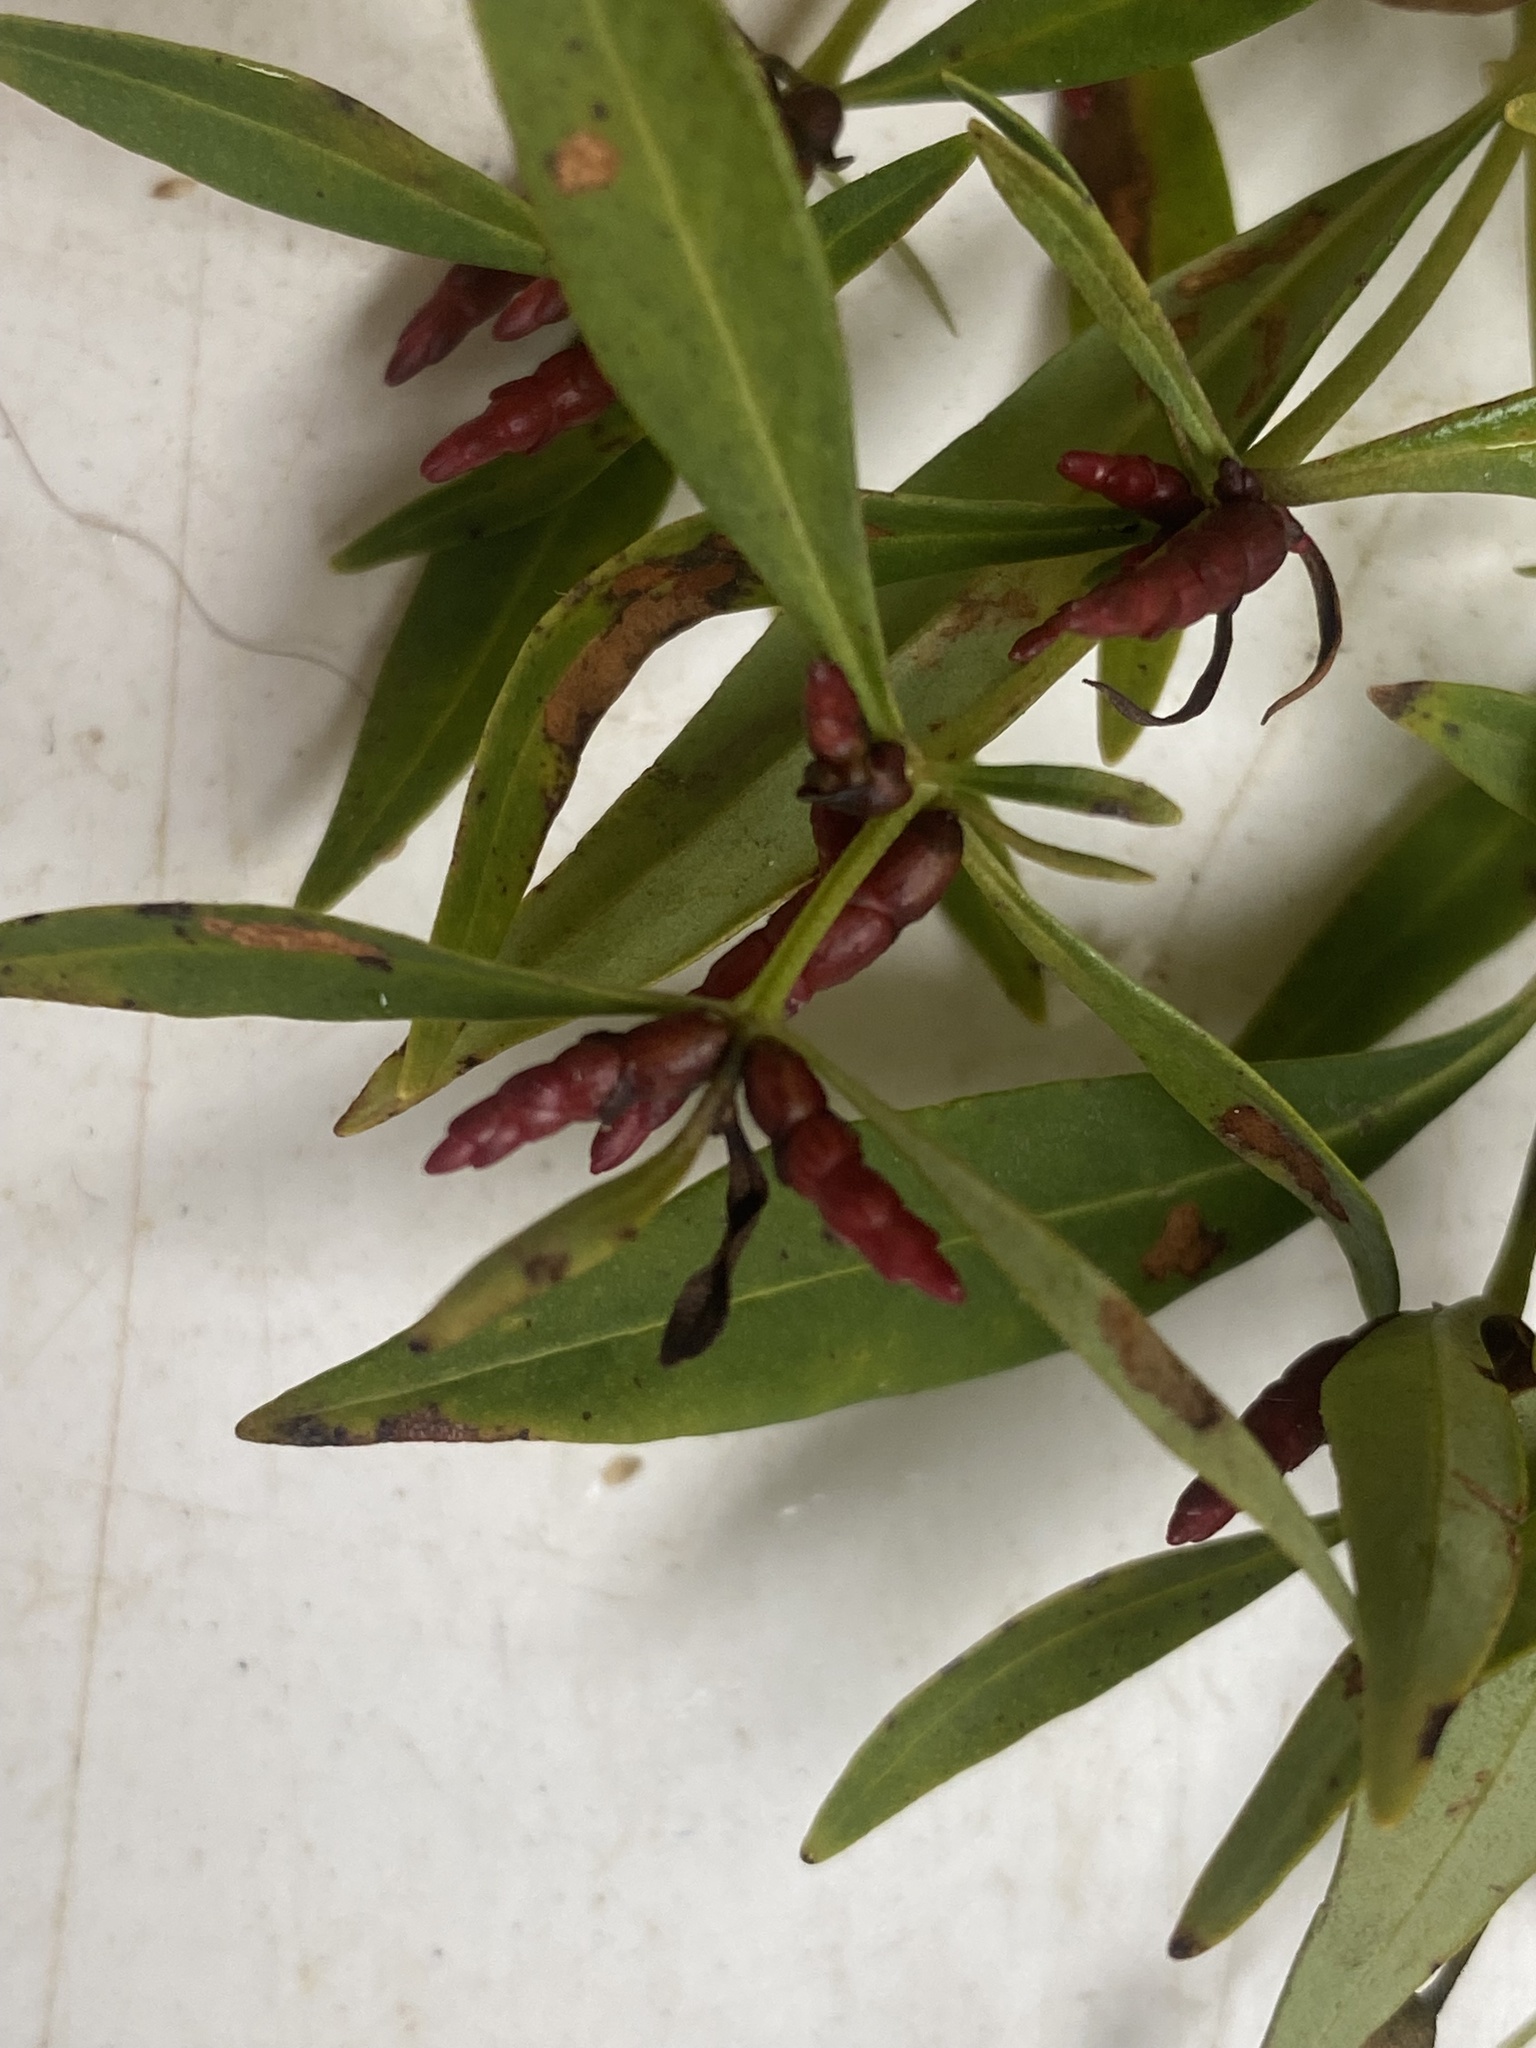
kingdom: Plantae
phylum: Tracheophyta
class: Magnoliopsida
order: Ericales
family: Primulaceae
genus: Lysimachia
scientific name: Lysimachia terrestris
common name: Lake loosestrife
